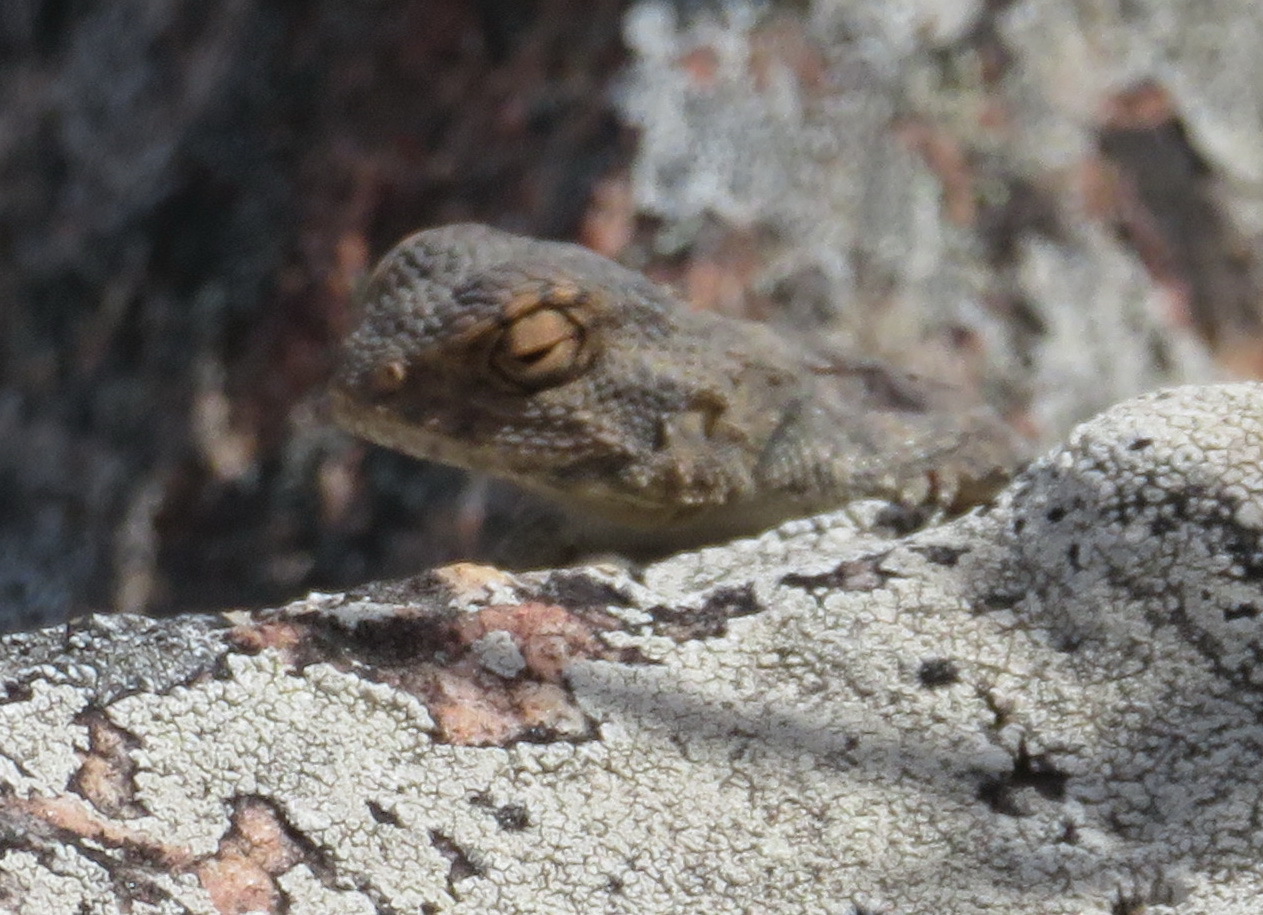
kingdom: Animalia
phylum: Chordata
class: Squamata
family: Agamidae
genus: Agama
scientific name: Agama atra
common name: Southern african rock agama
